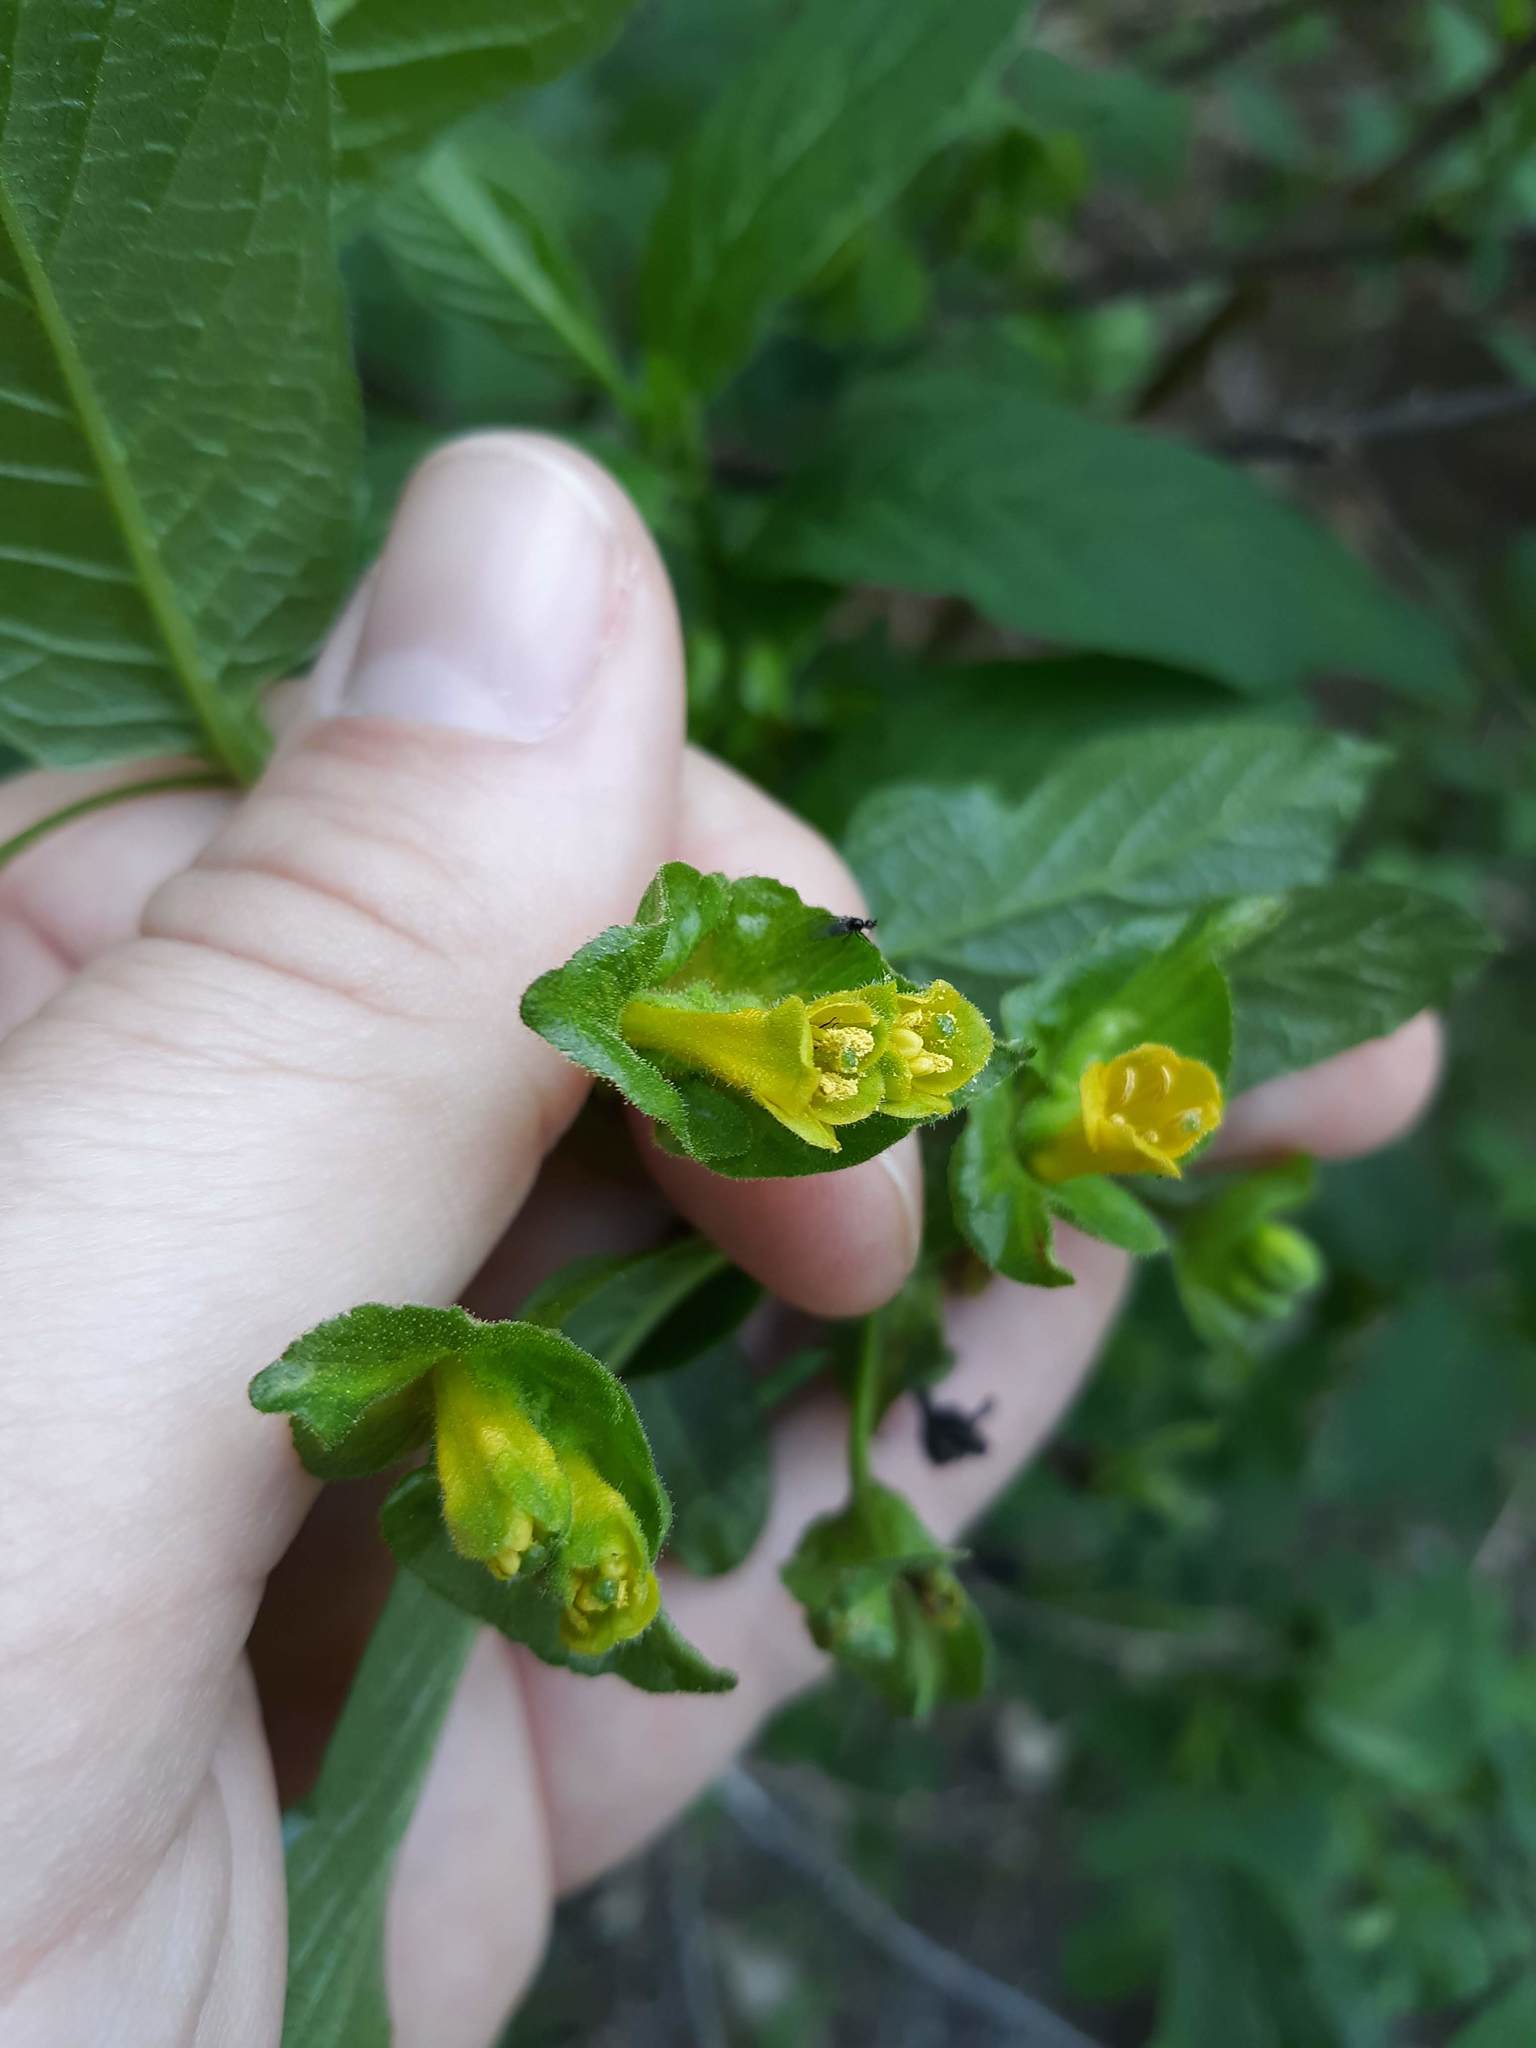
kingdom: Plantae
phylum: Tracheophyta
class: Magnoliopsida
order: Dipsacales
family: Caprifoliaceae
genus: Lonicera
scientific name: Lonicera involucrata
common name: Californian honeysuckle
